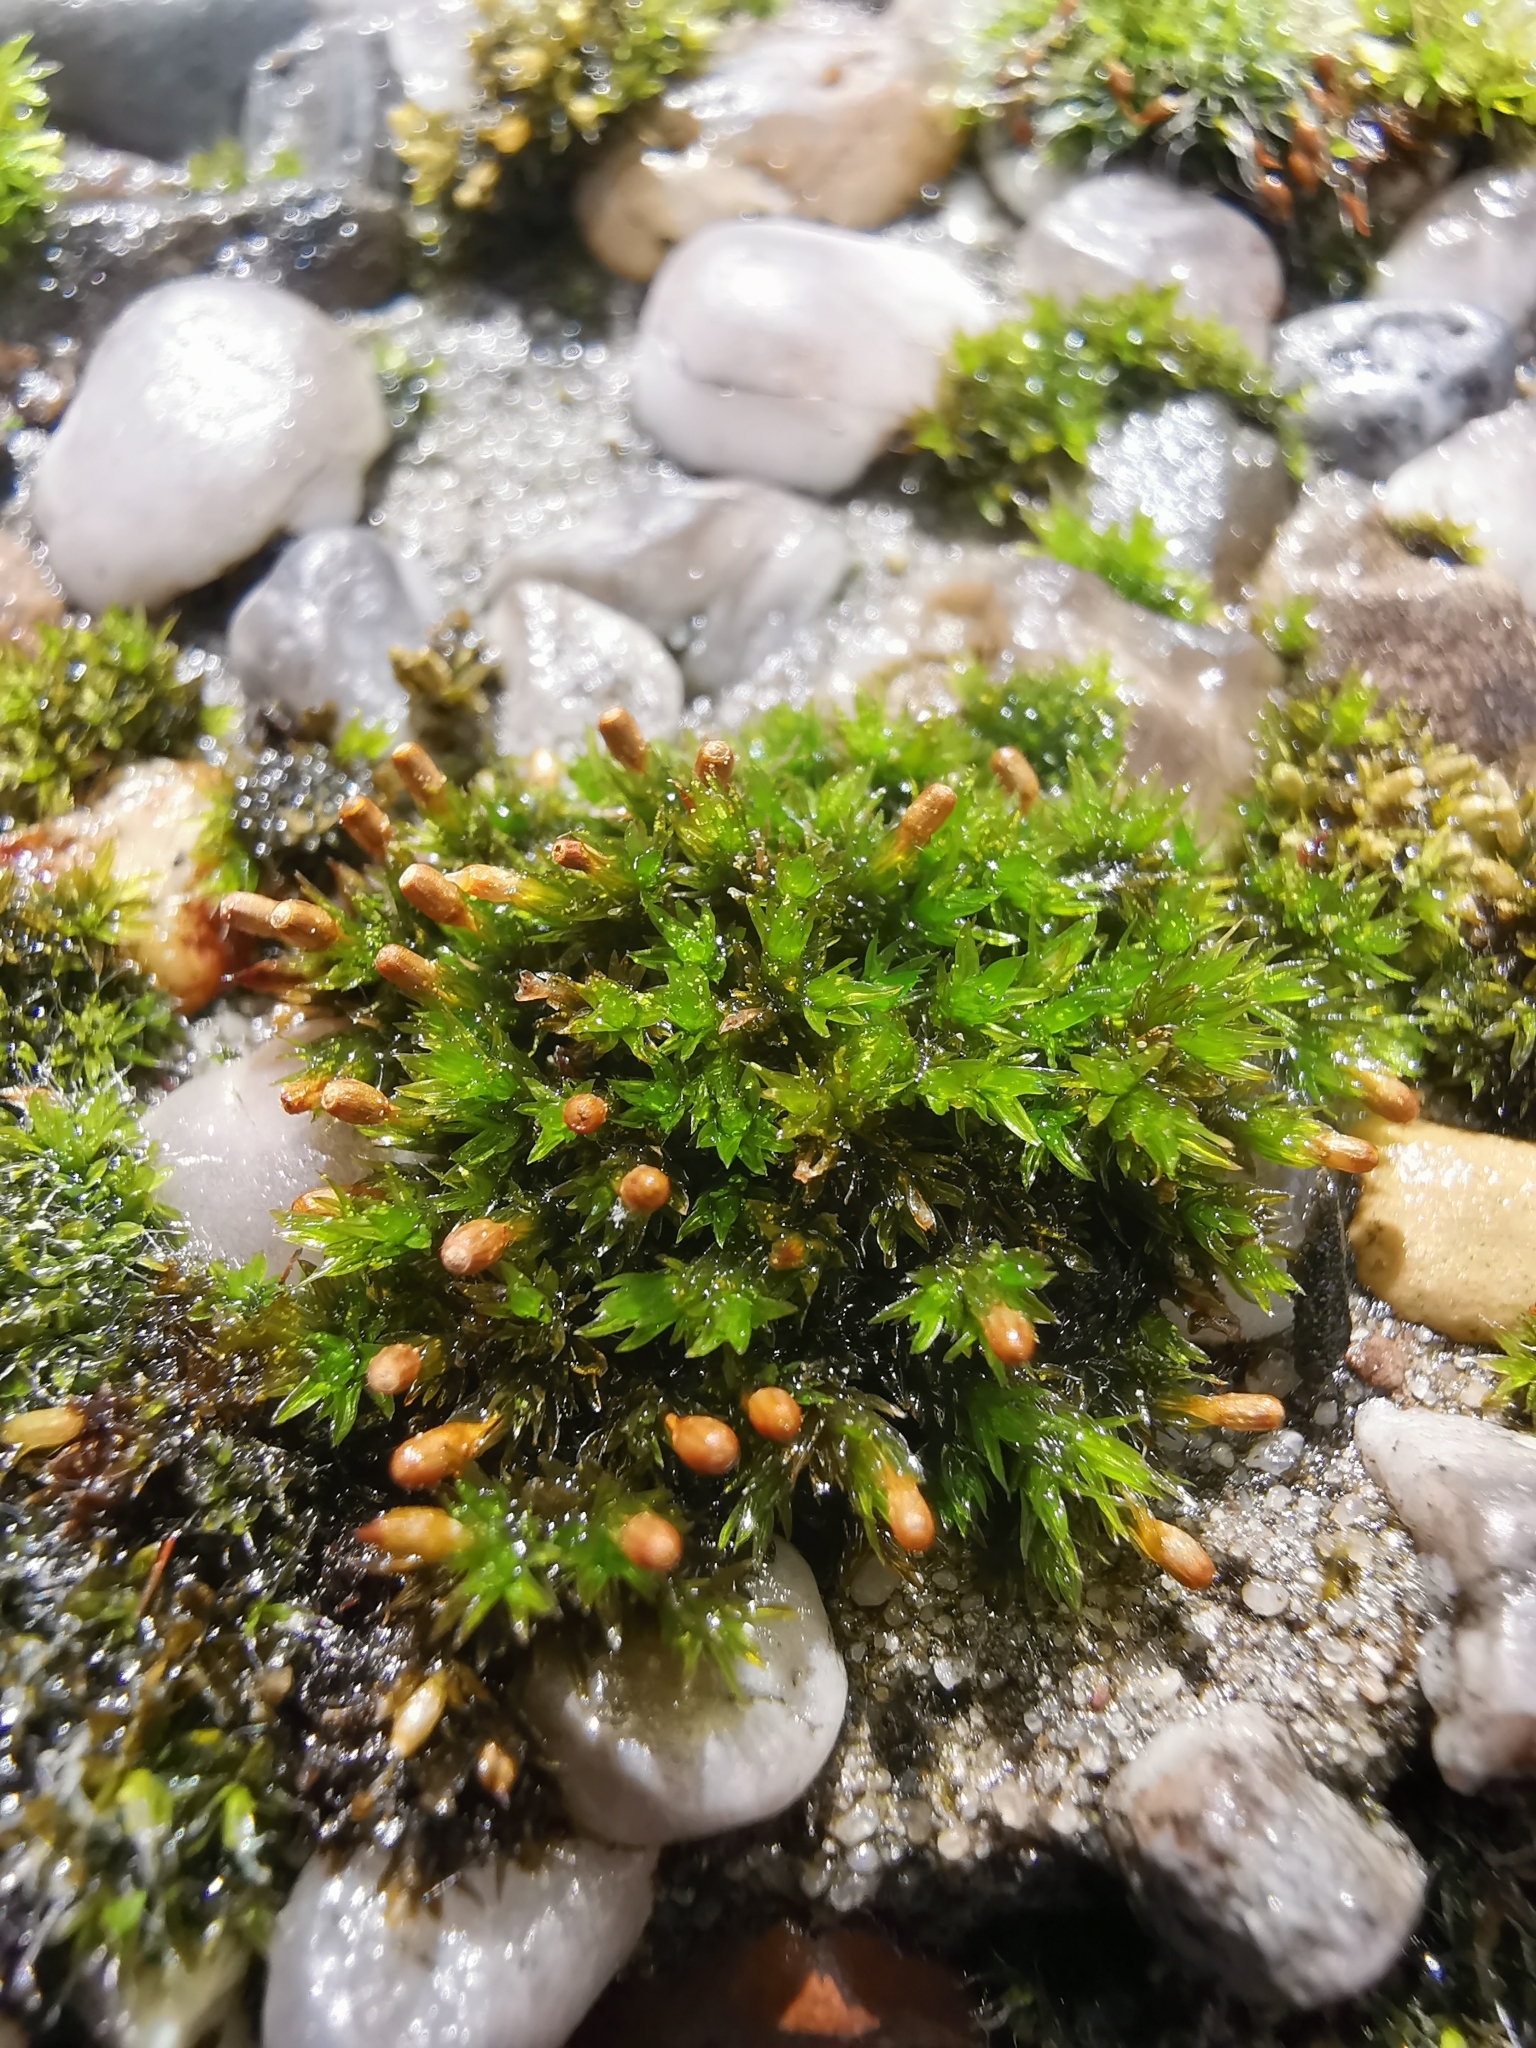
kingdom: Plantae
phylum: Bryophyta
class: Bryopsida
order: Orthotrichales
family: Orthotrichaceae
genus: Orthotrichum
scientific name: Orthotrichum anomalum
